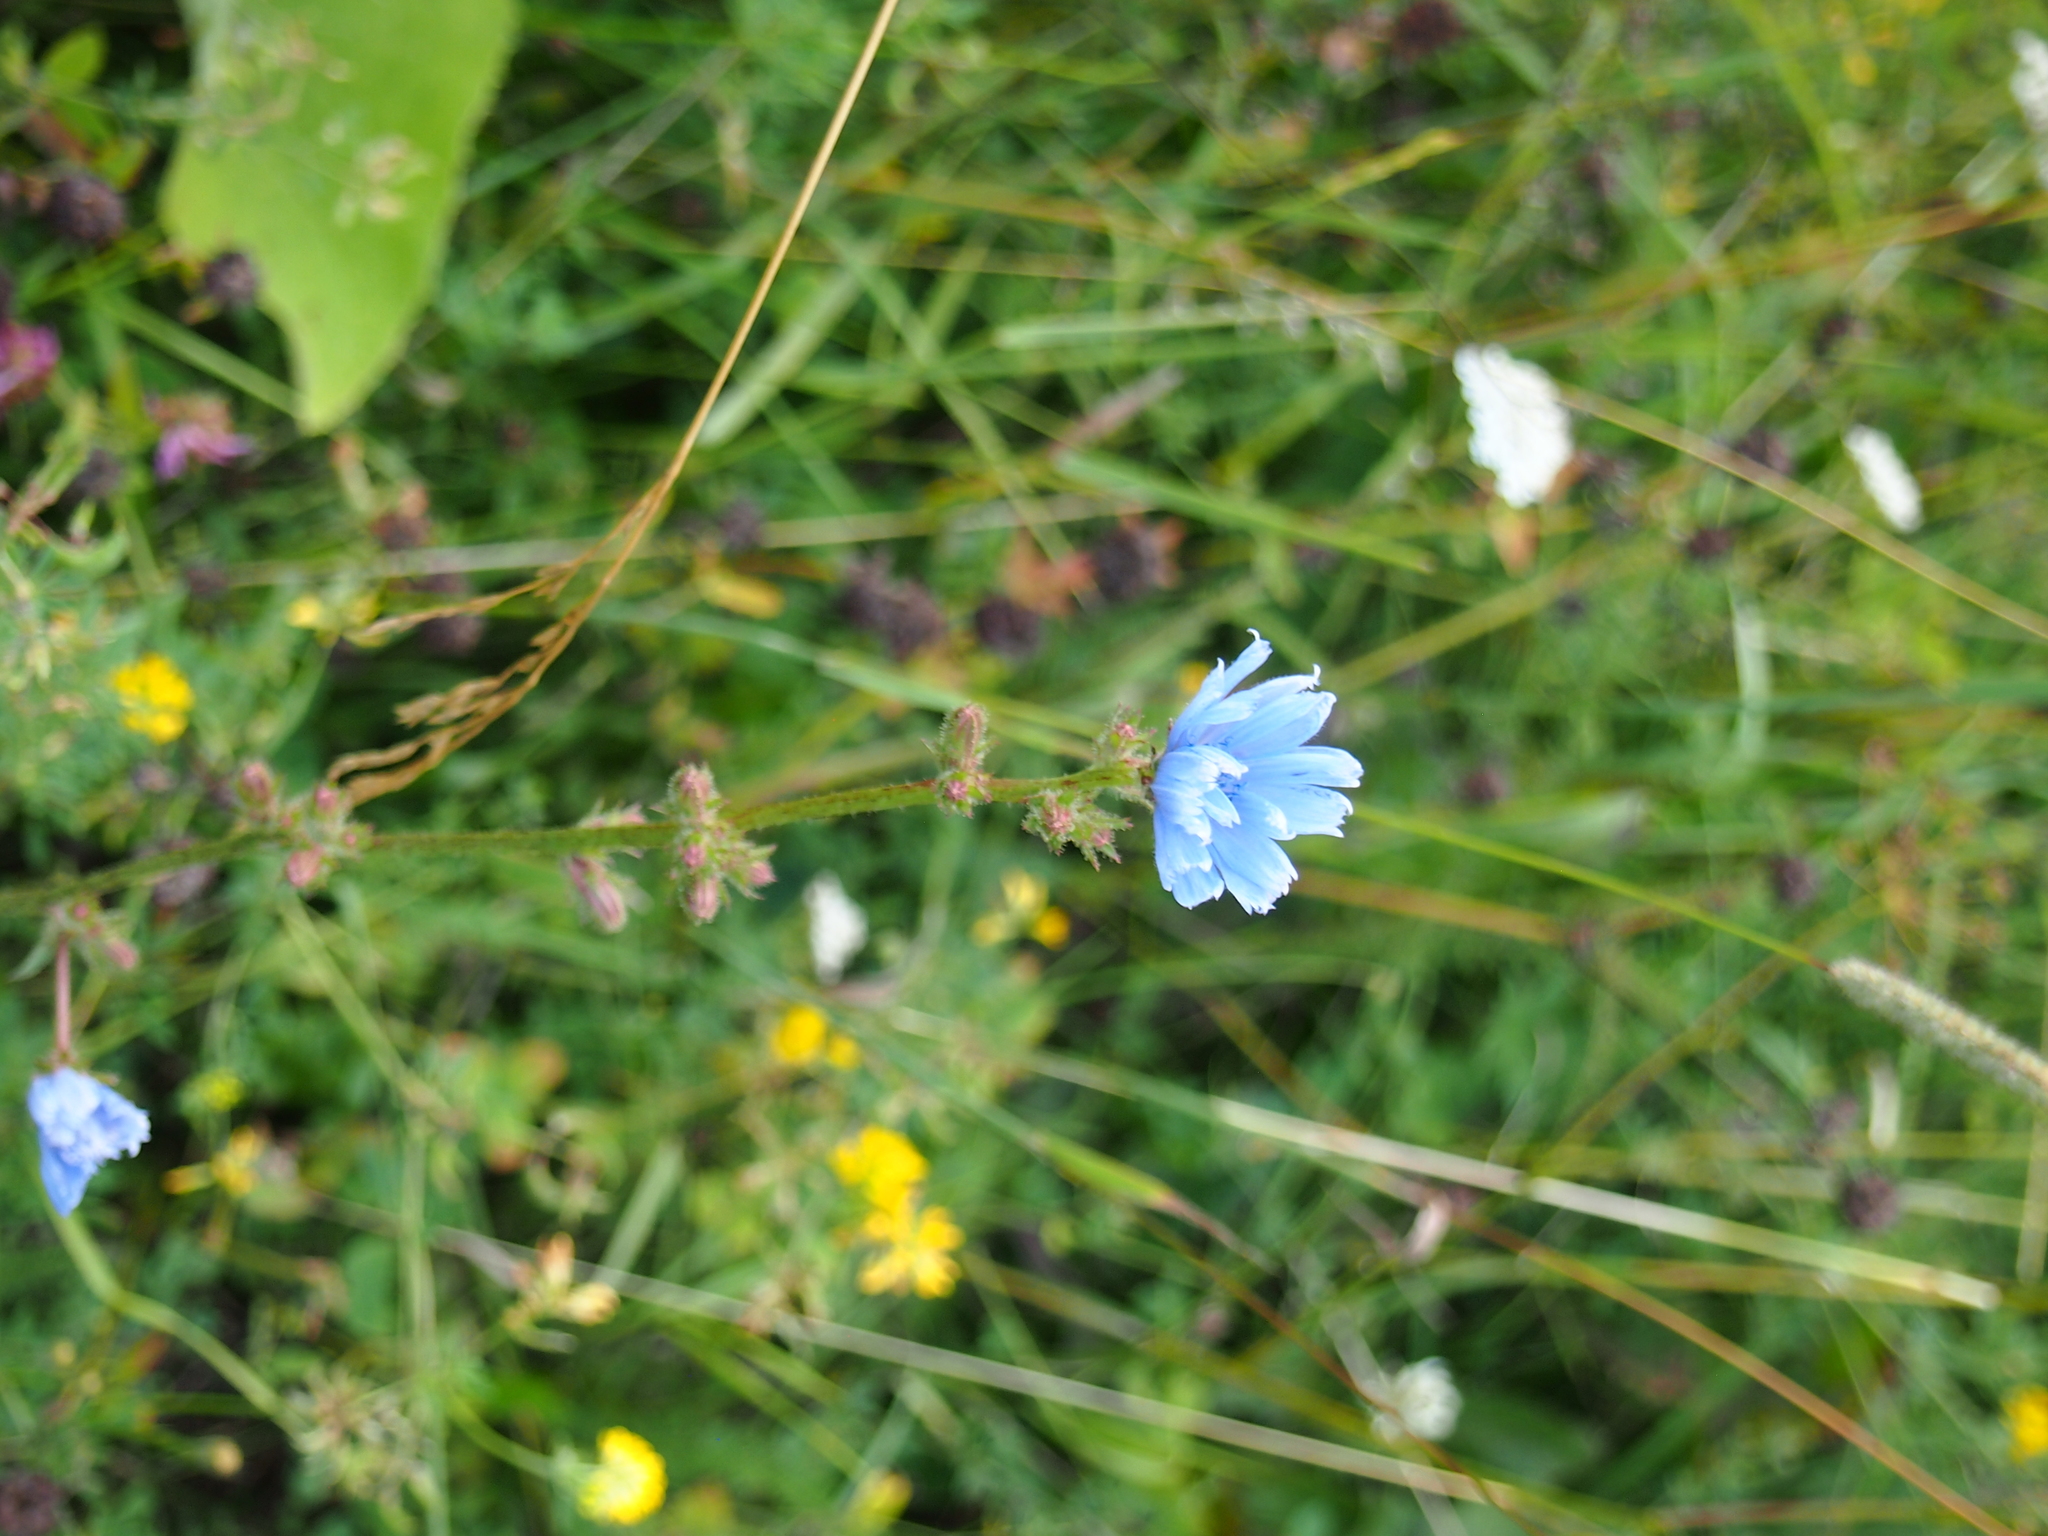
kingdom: Plantae
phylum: Tracheophyta
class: Magnoliopsida
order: Asterales
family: Asteraceae
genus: Cichorium
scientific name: Cichorium intybus
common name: Chicory
